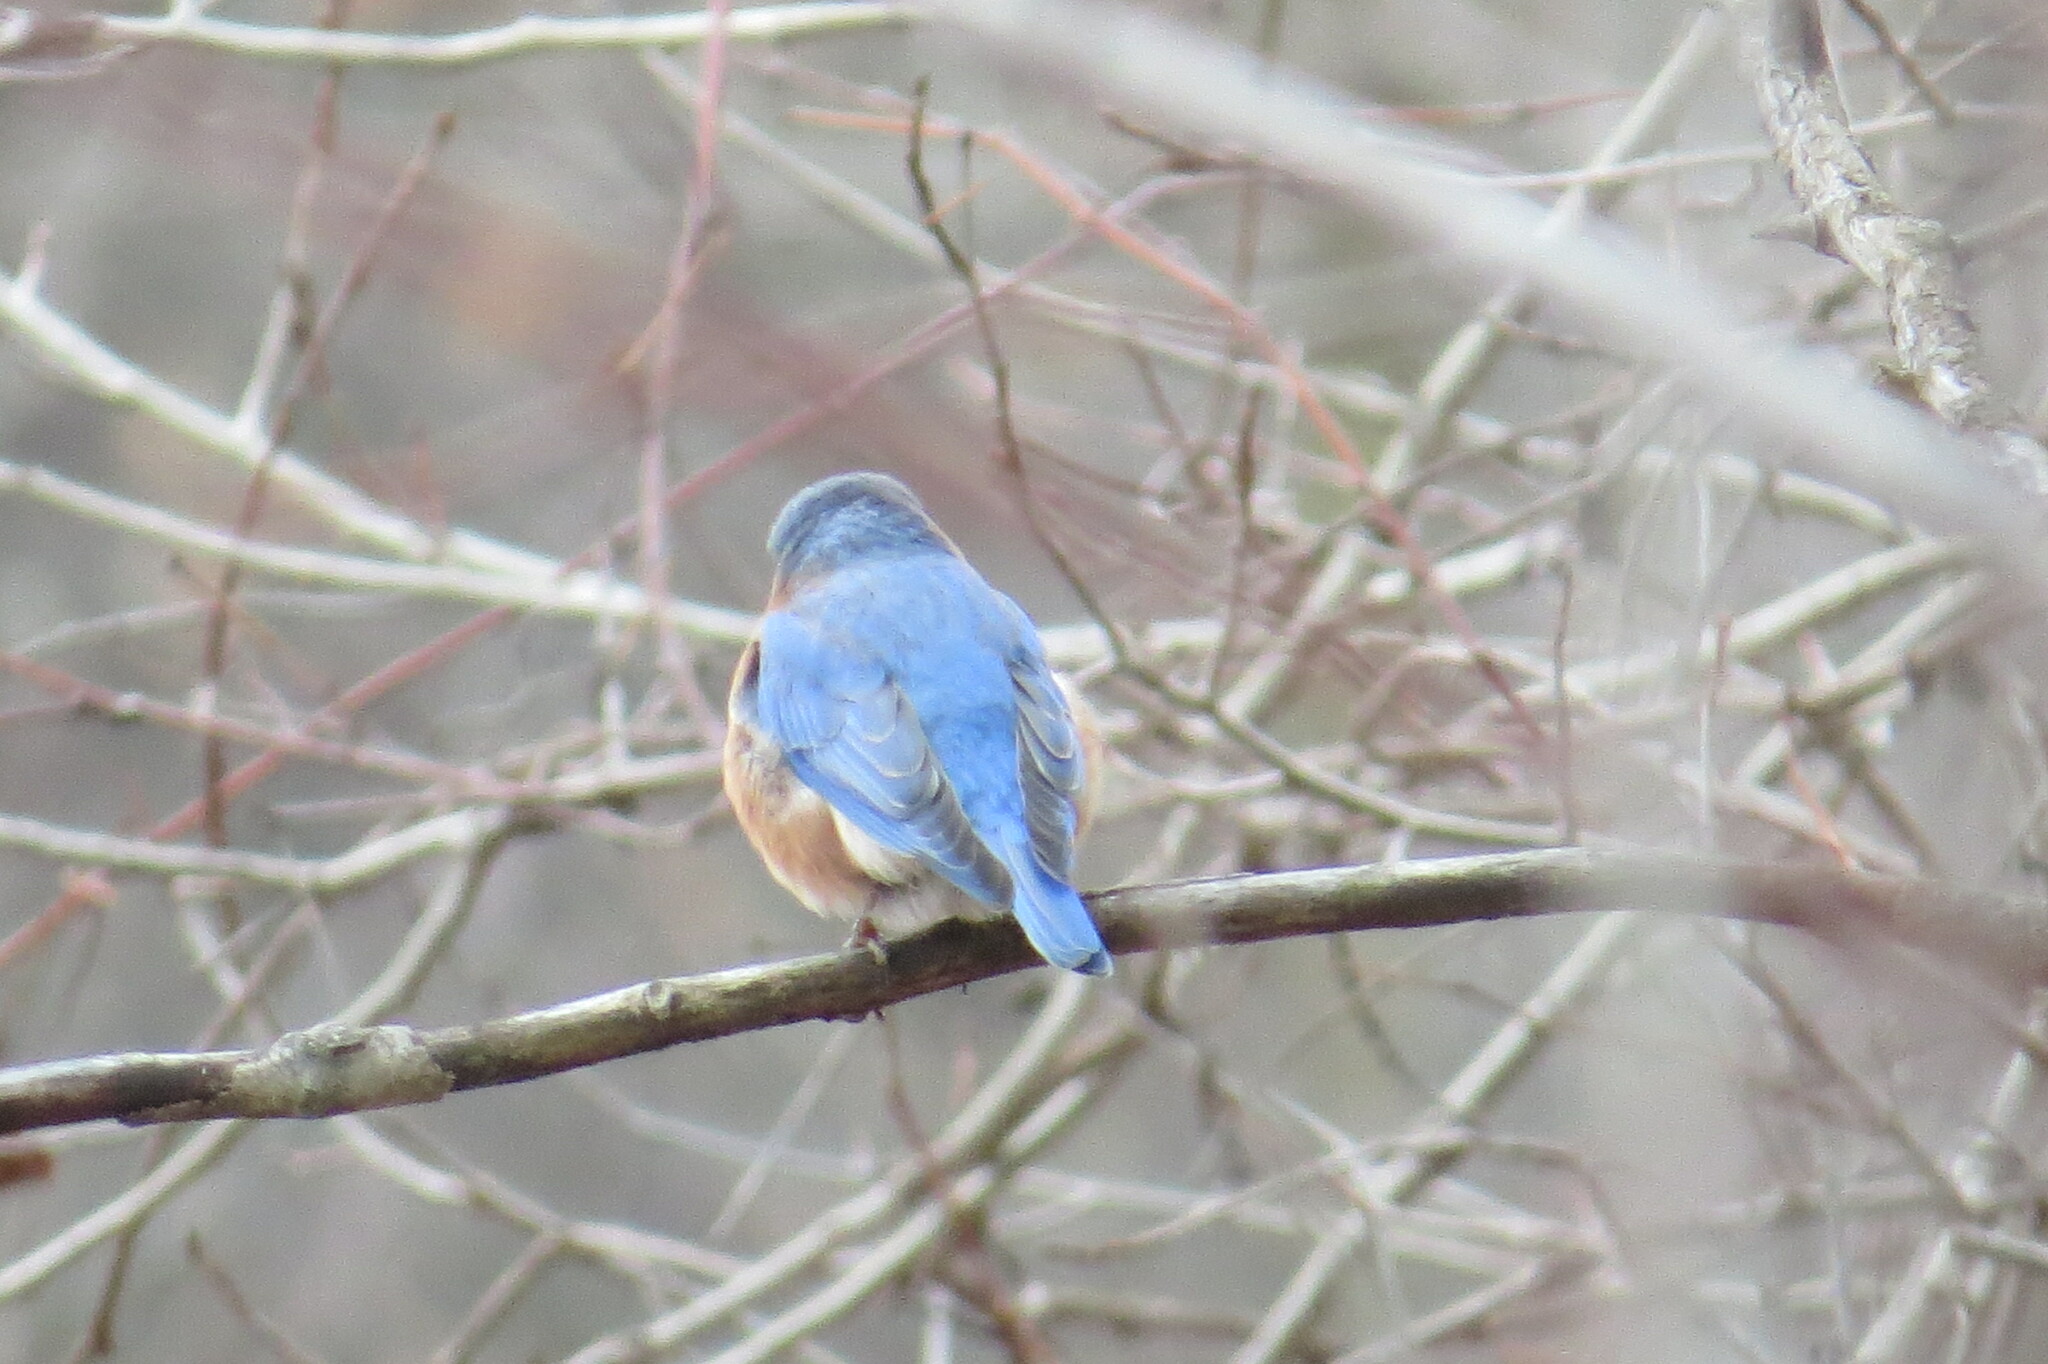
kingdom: Animalia
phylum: Chordata
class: Aves
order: Passeriformes
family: Turdidae
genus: Sialia
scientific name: Sialia sialis
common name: Eastern bluebird
